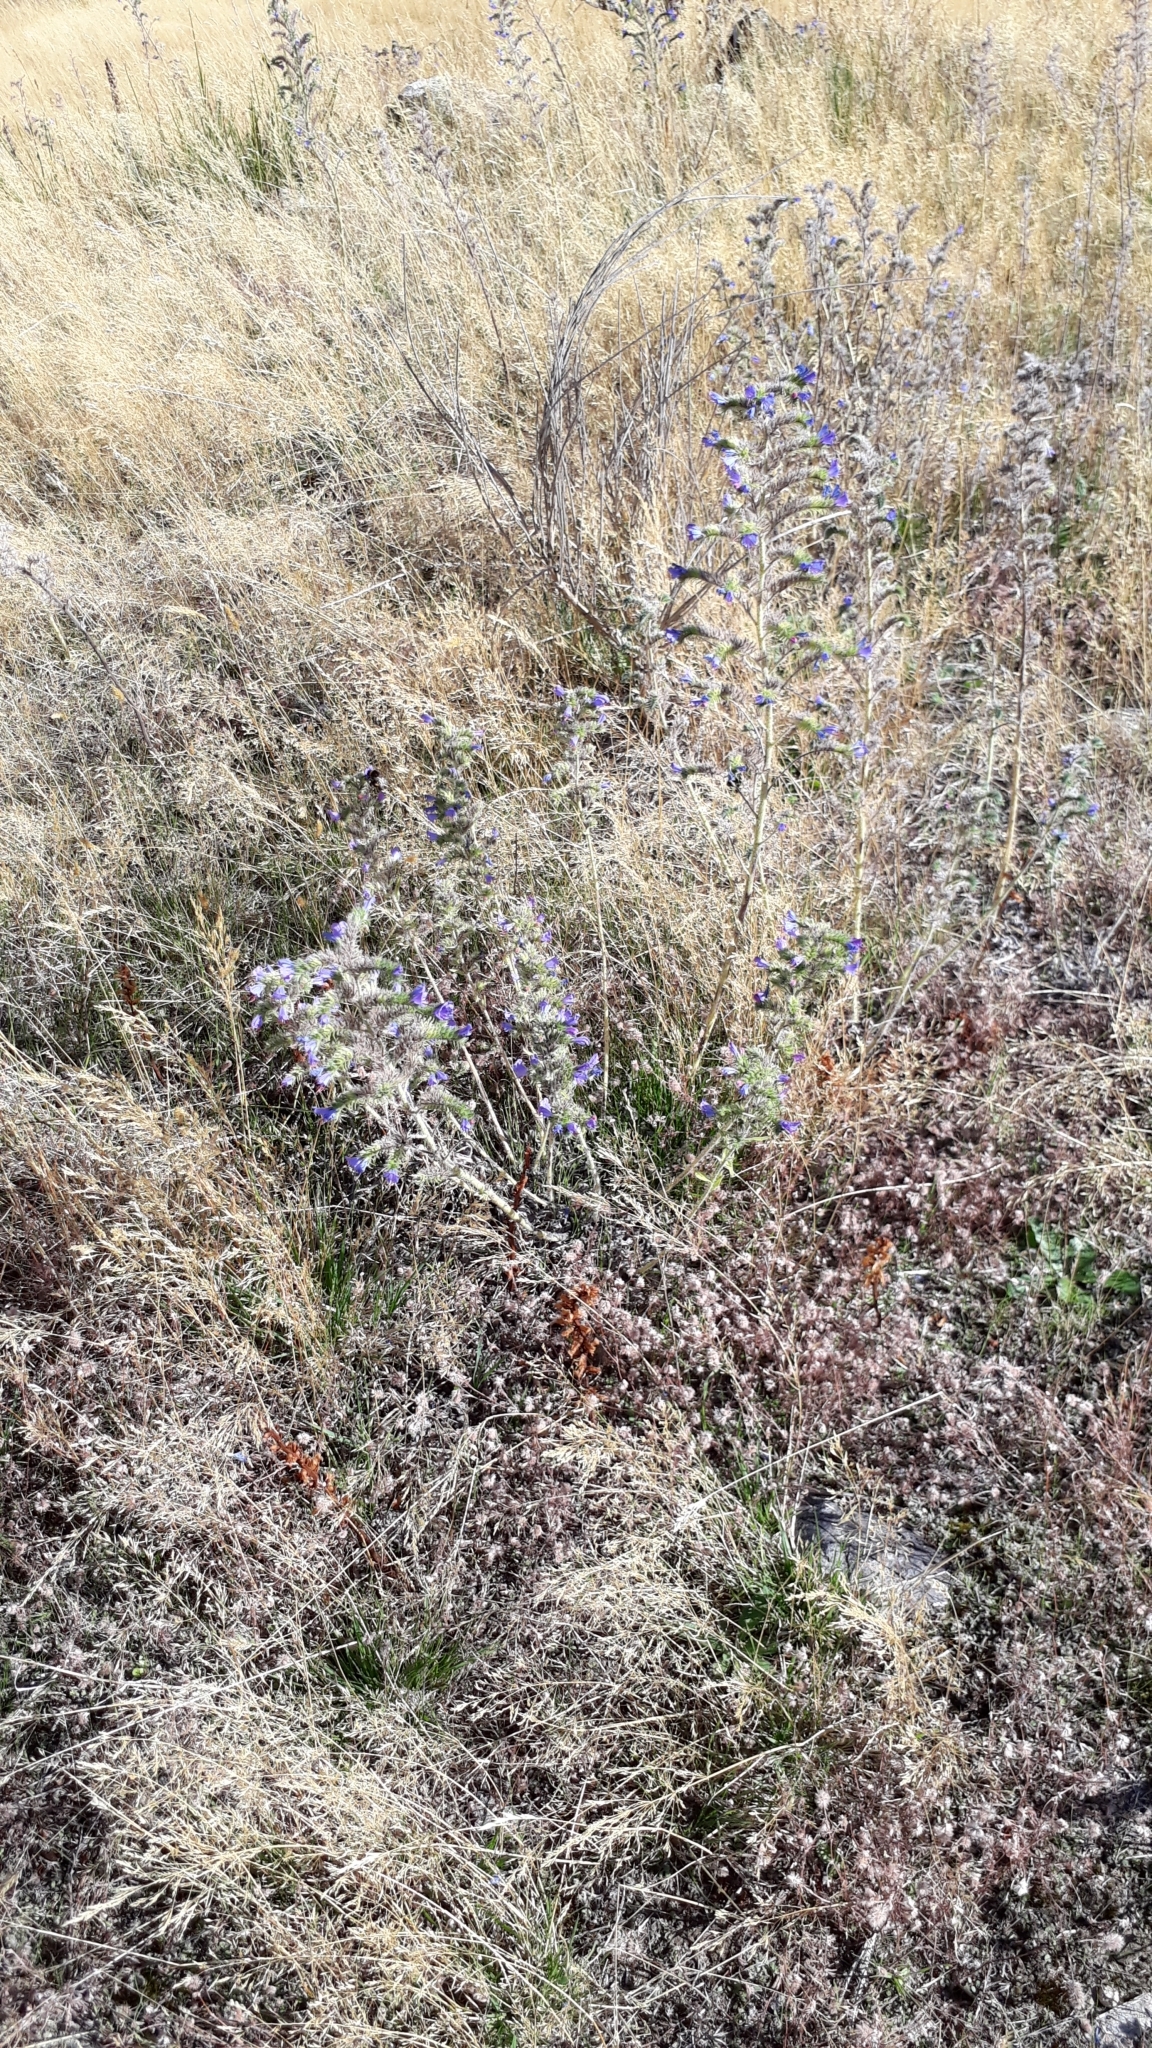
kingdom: Plantae
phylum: Tracheophyta
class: Magnoliopsida
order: Boraginales
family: Boraginaceae
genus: Echium
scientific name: Echium vulgare
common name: Common viper's bugloss
